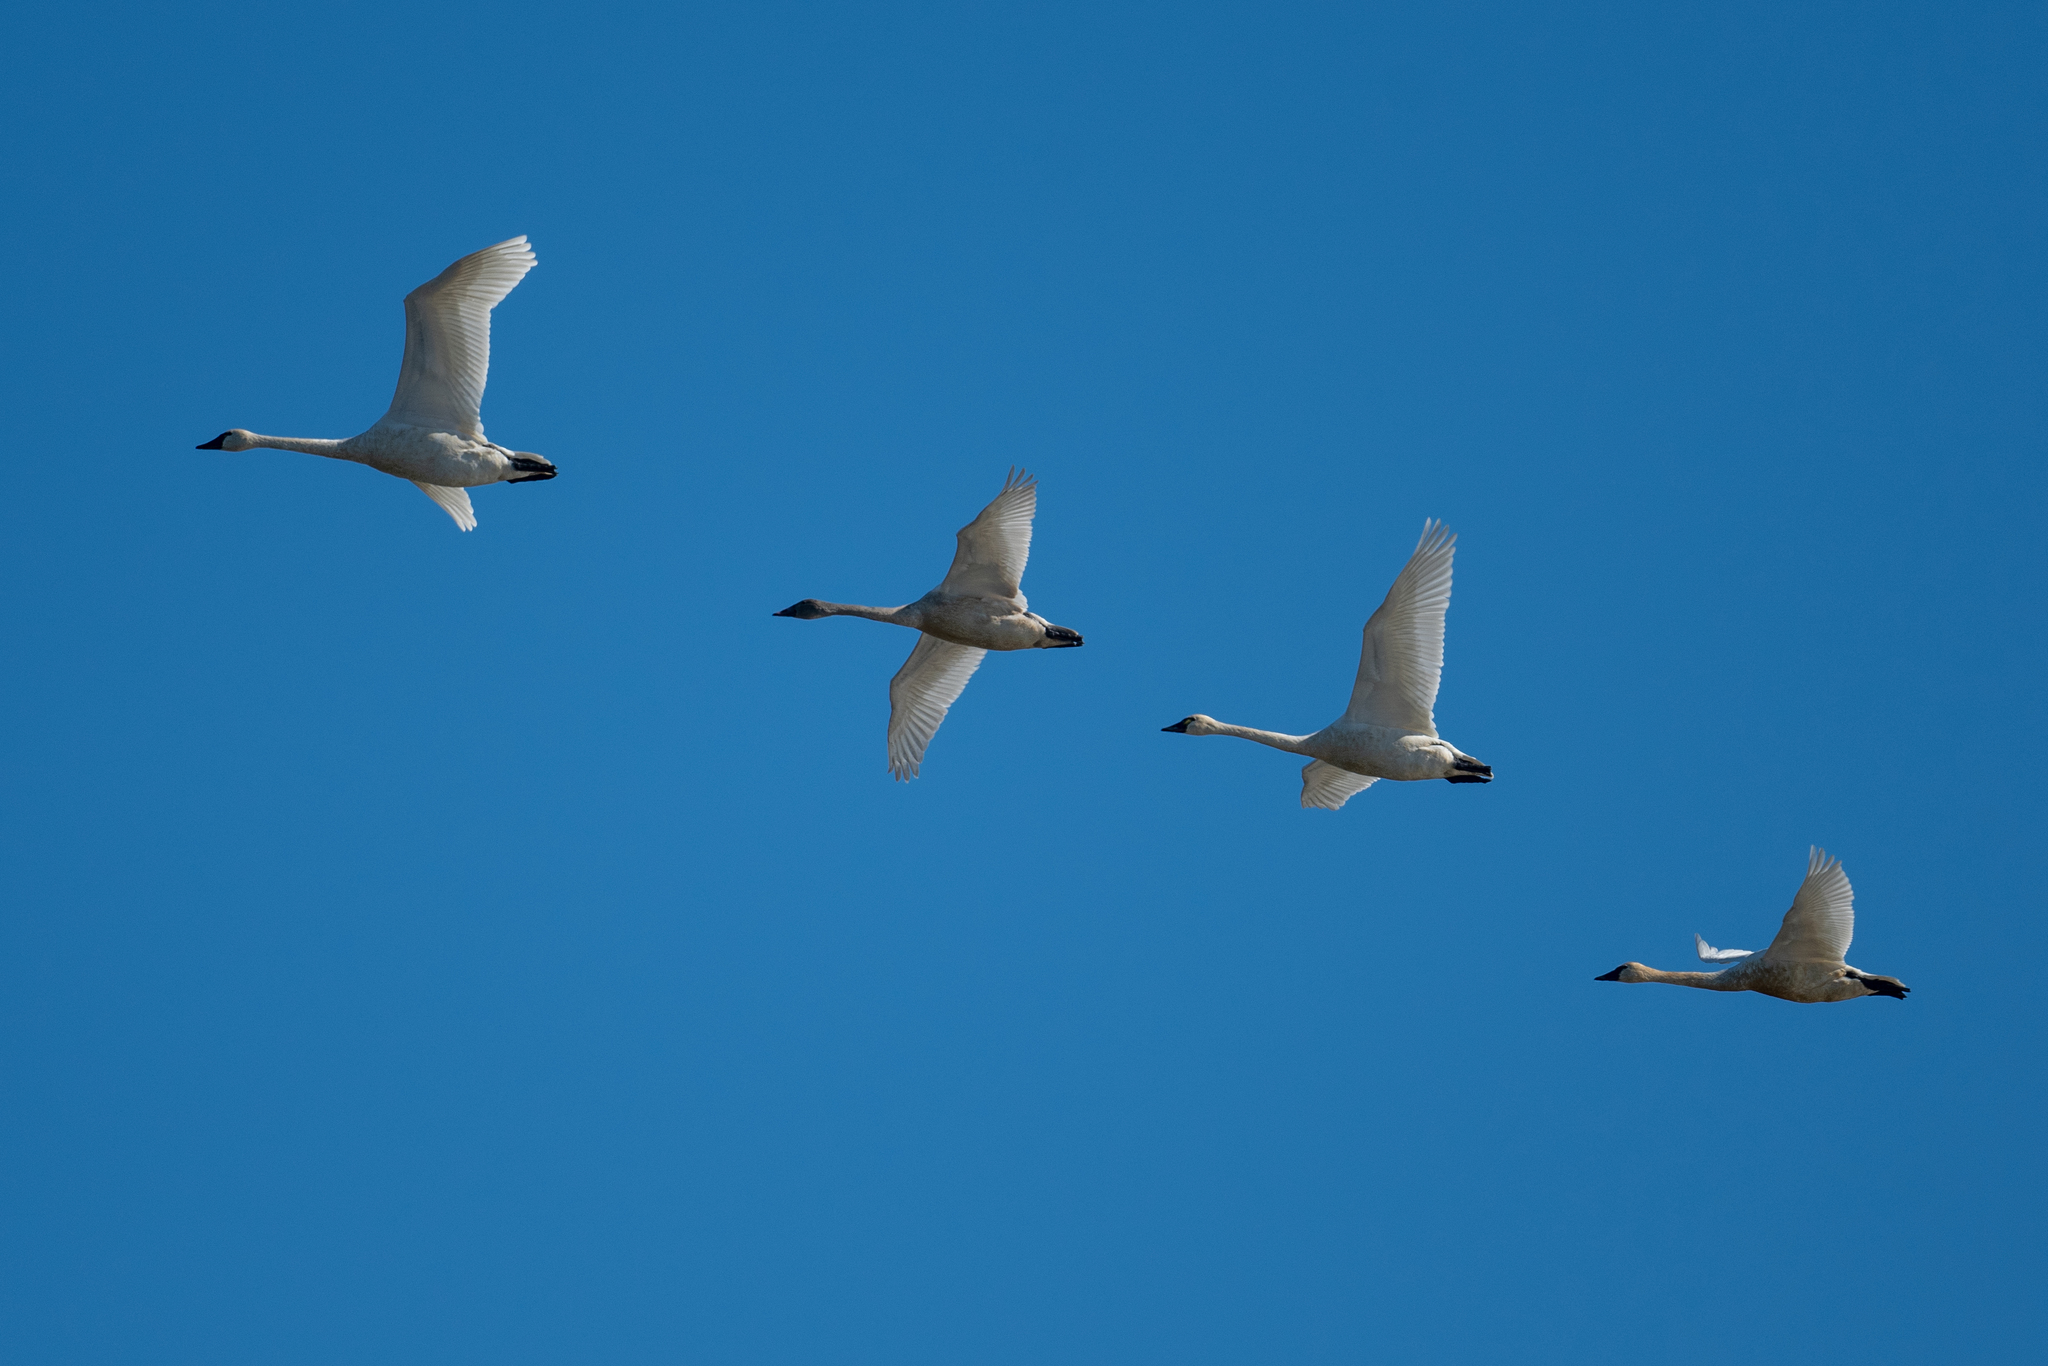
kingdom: Animalia
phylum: Chordata
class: Aves
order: Anseriformes
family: Anatidae
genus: Cygnus
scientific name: Cygnus columbianus
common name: Tundra swan
